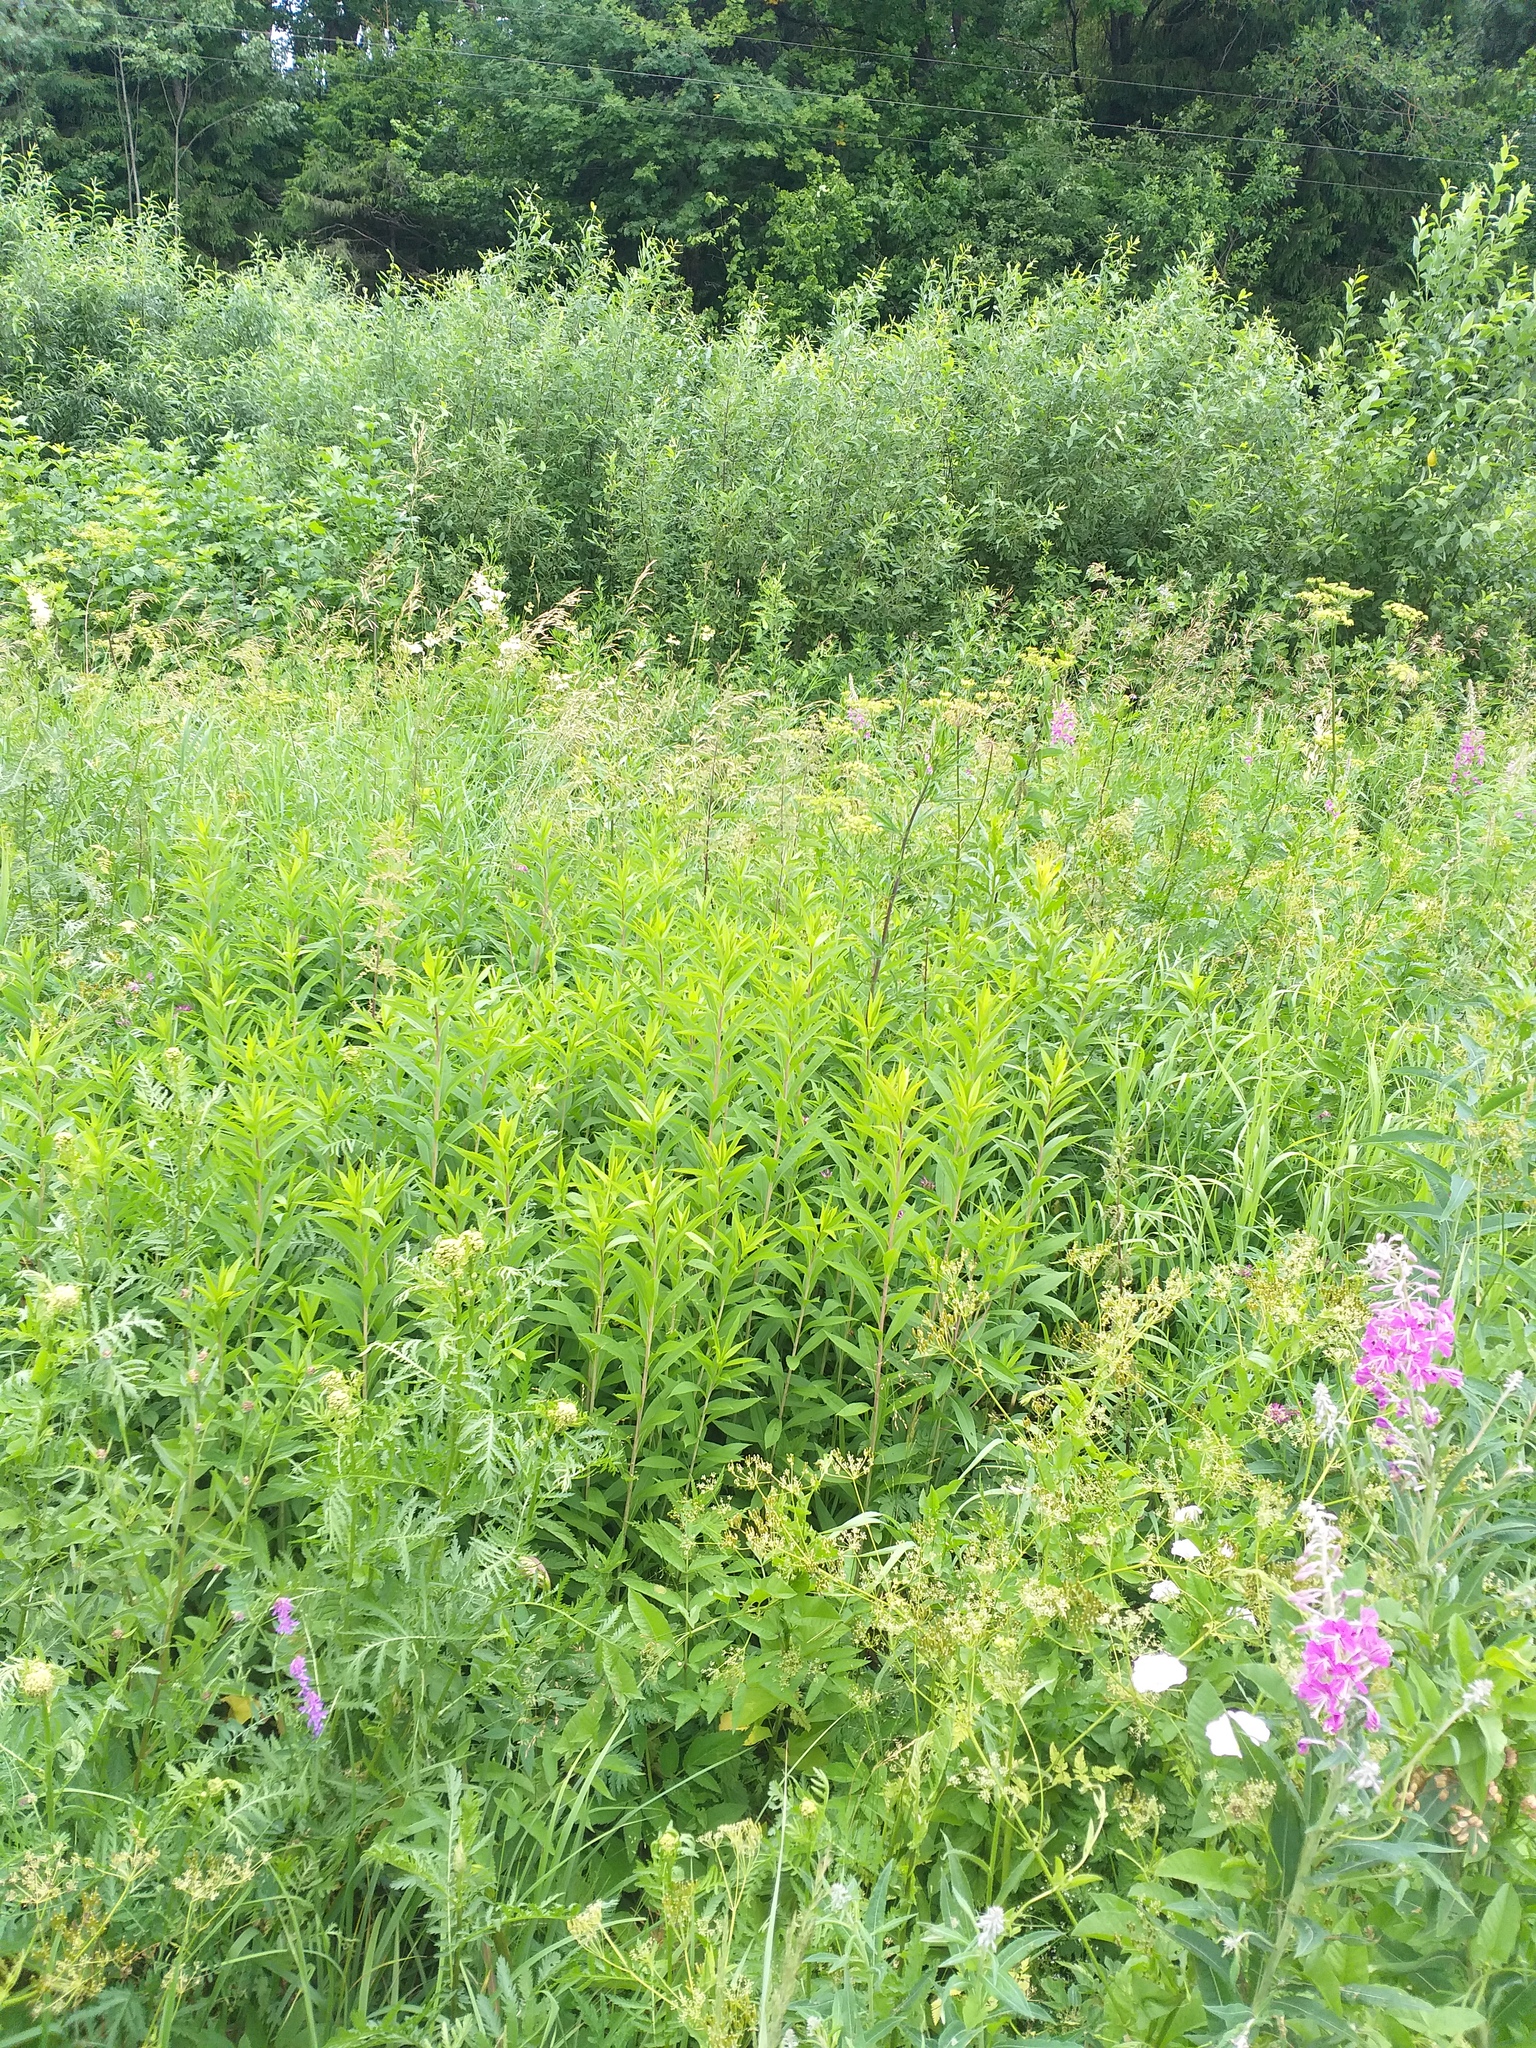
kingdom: Plantae
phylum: Tracheophyta
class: Magnoliopsida
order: Asterales
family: Asteraceae
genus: Solidago
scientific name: Solidago gigantea
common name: Giant goldenrod
